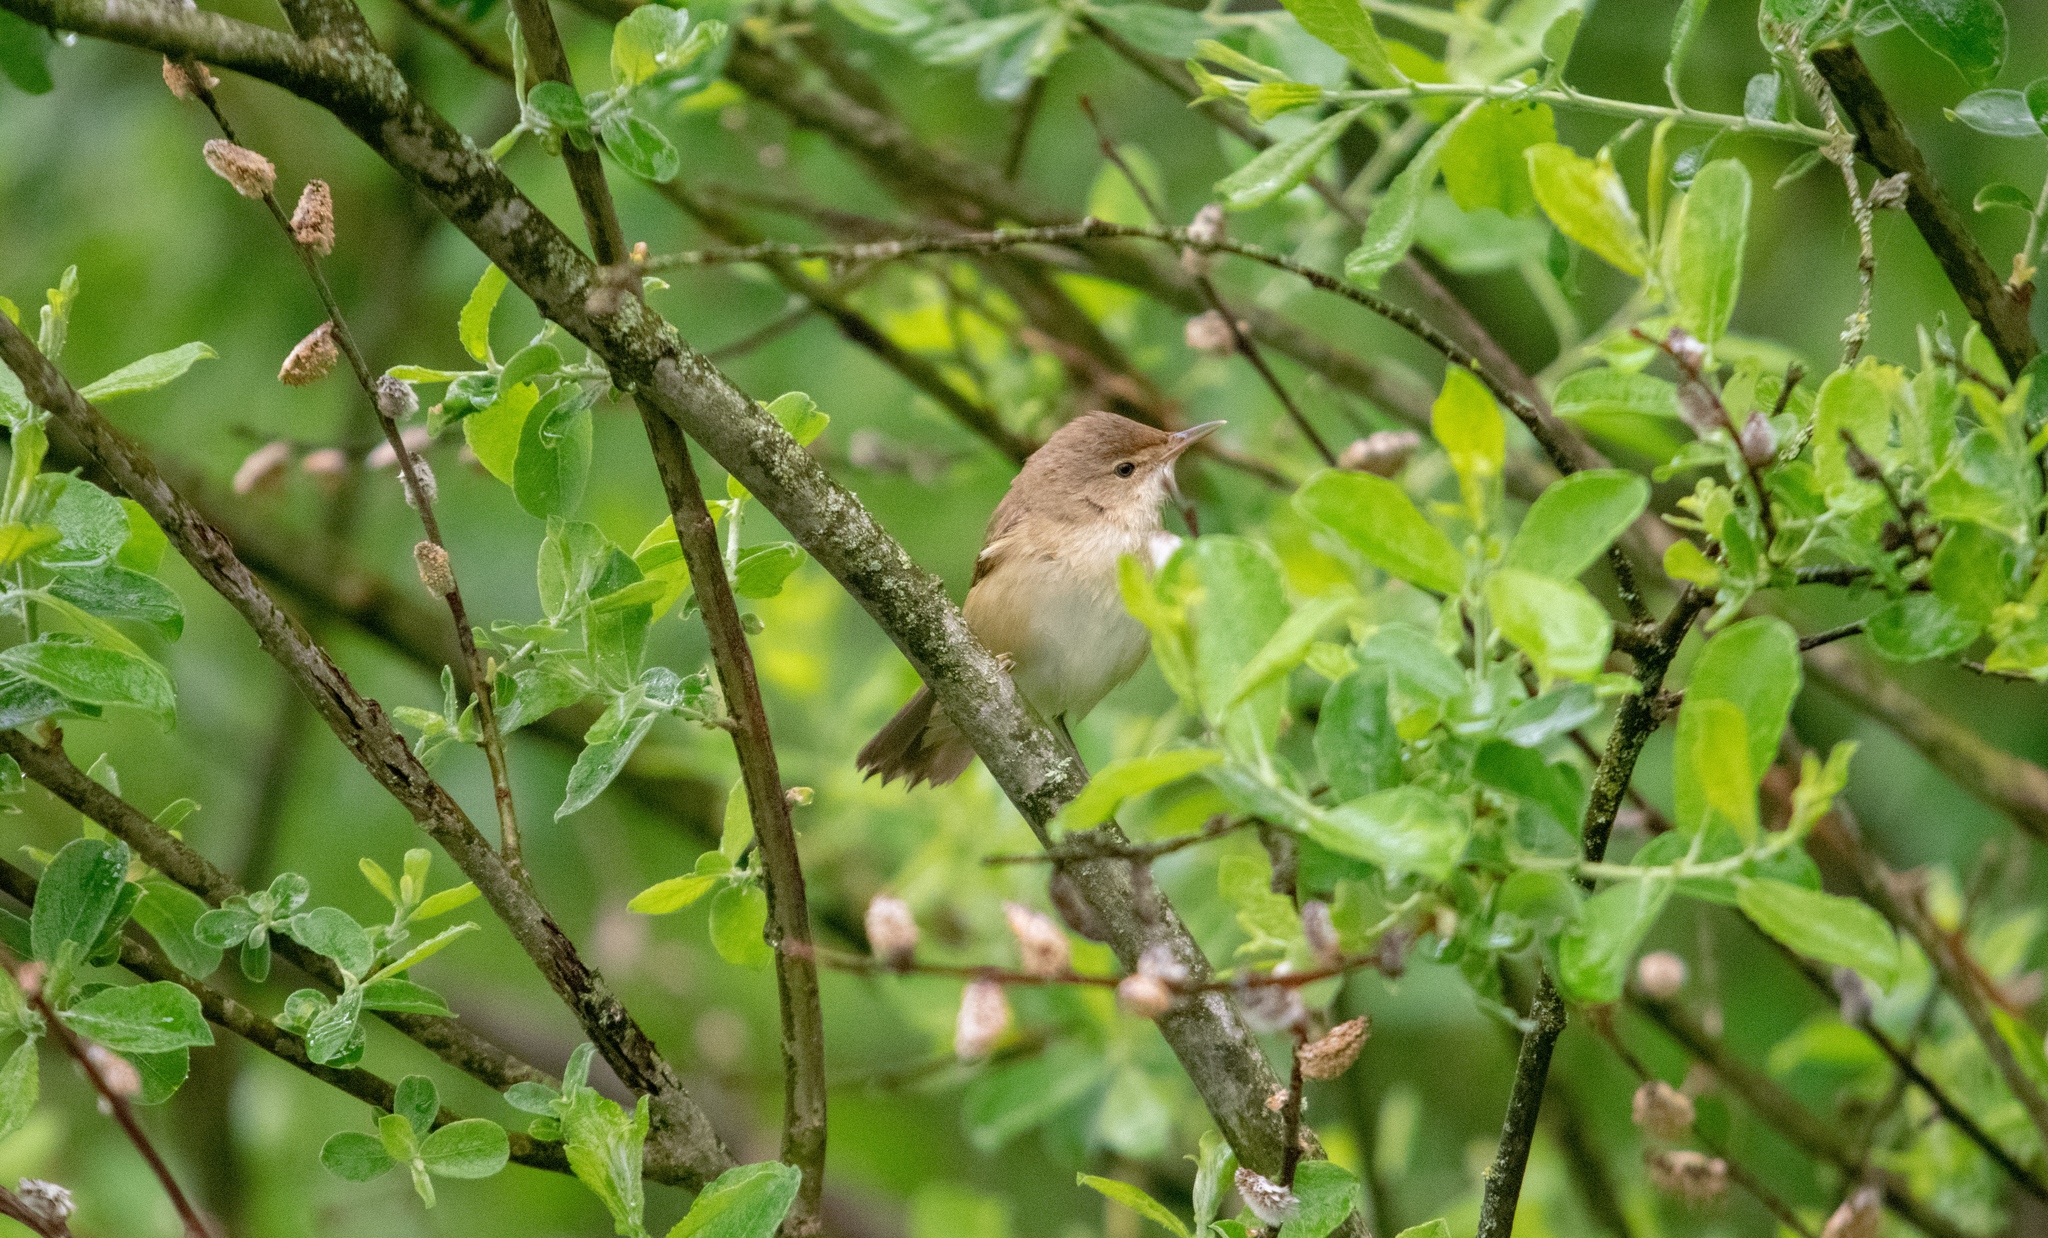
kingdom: Animalia
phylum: Chordata
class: Aves
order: Passeriformes
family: Acrocephalidae
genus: Acrocephalus
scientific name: Acrocephalus scirpaceus
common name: Eurasian reed warbler
